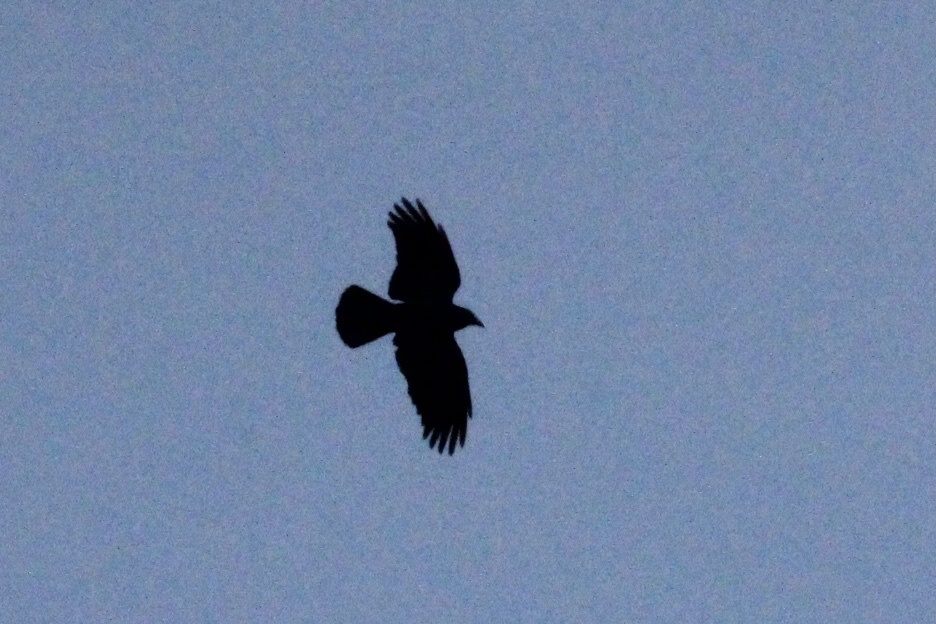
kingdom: Animalia
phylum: Chordata
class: Aves
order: Passeriformes
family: Corvidae
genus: Corvus
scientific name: Corvus brachyrhynchos
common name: American crow
